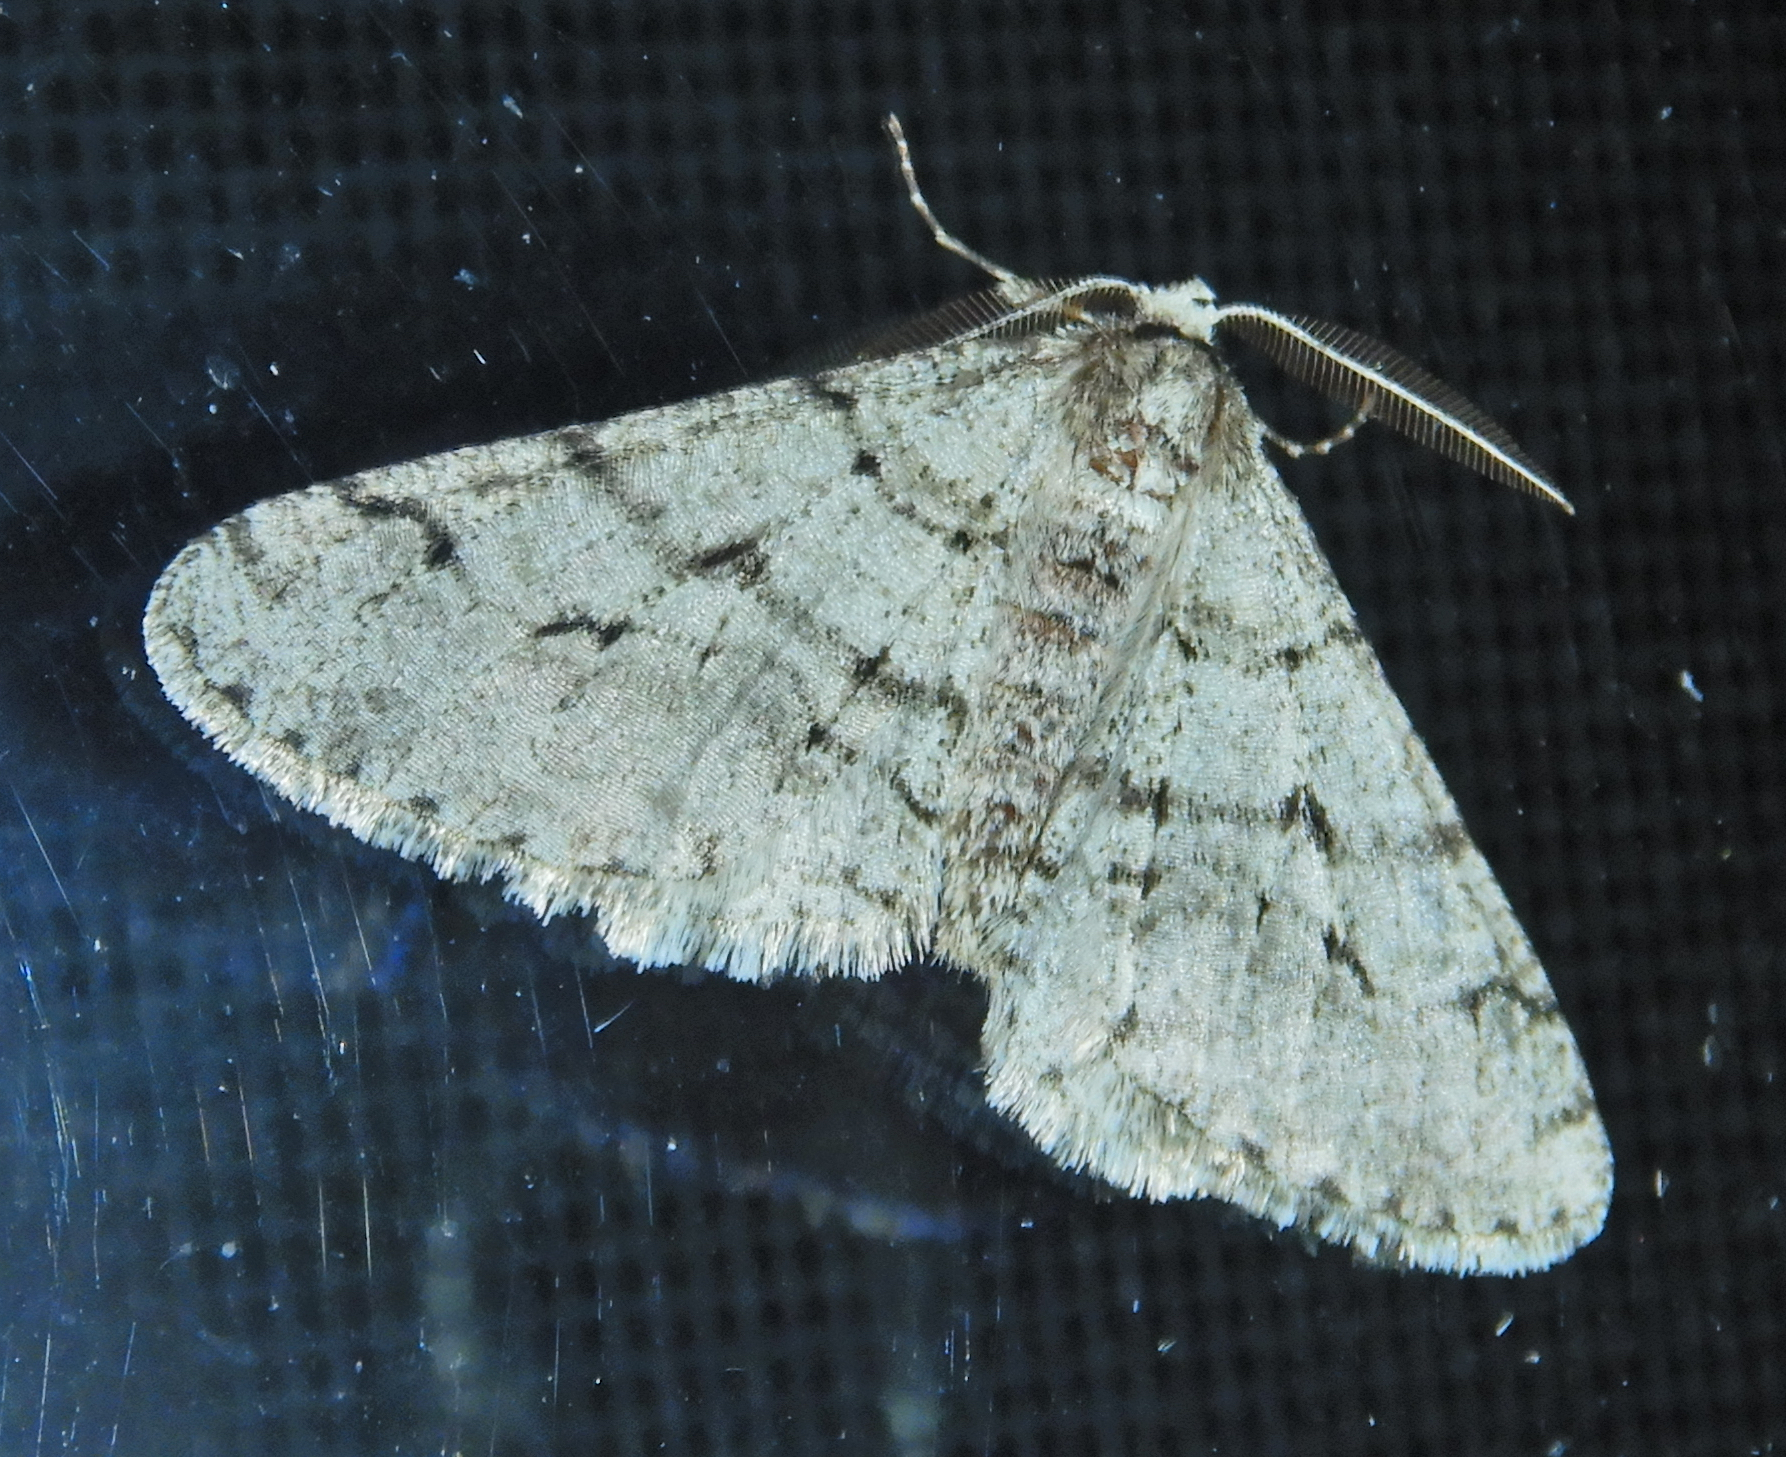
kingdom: Animalia
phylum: Arthropoda
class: Insecta
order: Lepidoptera
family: Geometridae
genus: Phigalia
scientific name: Phigalia titea
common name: Spiny looper
